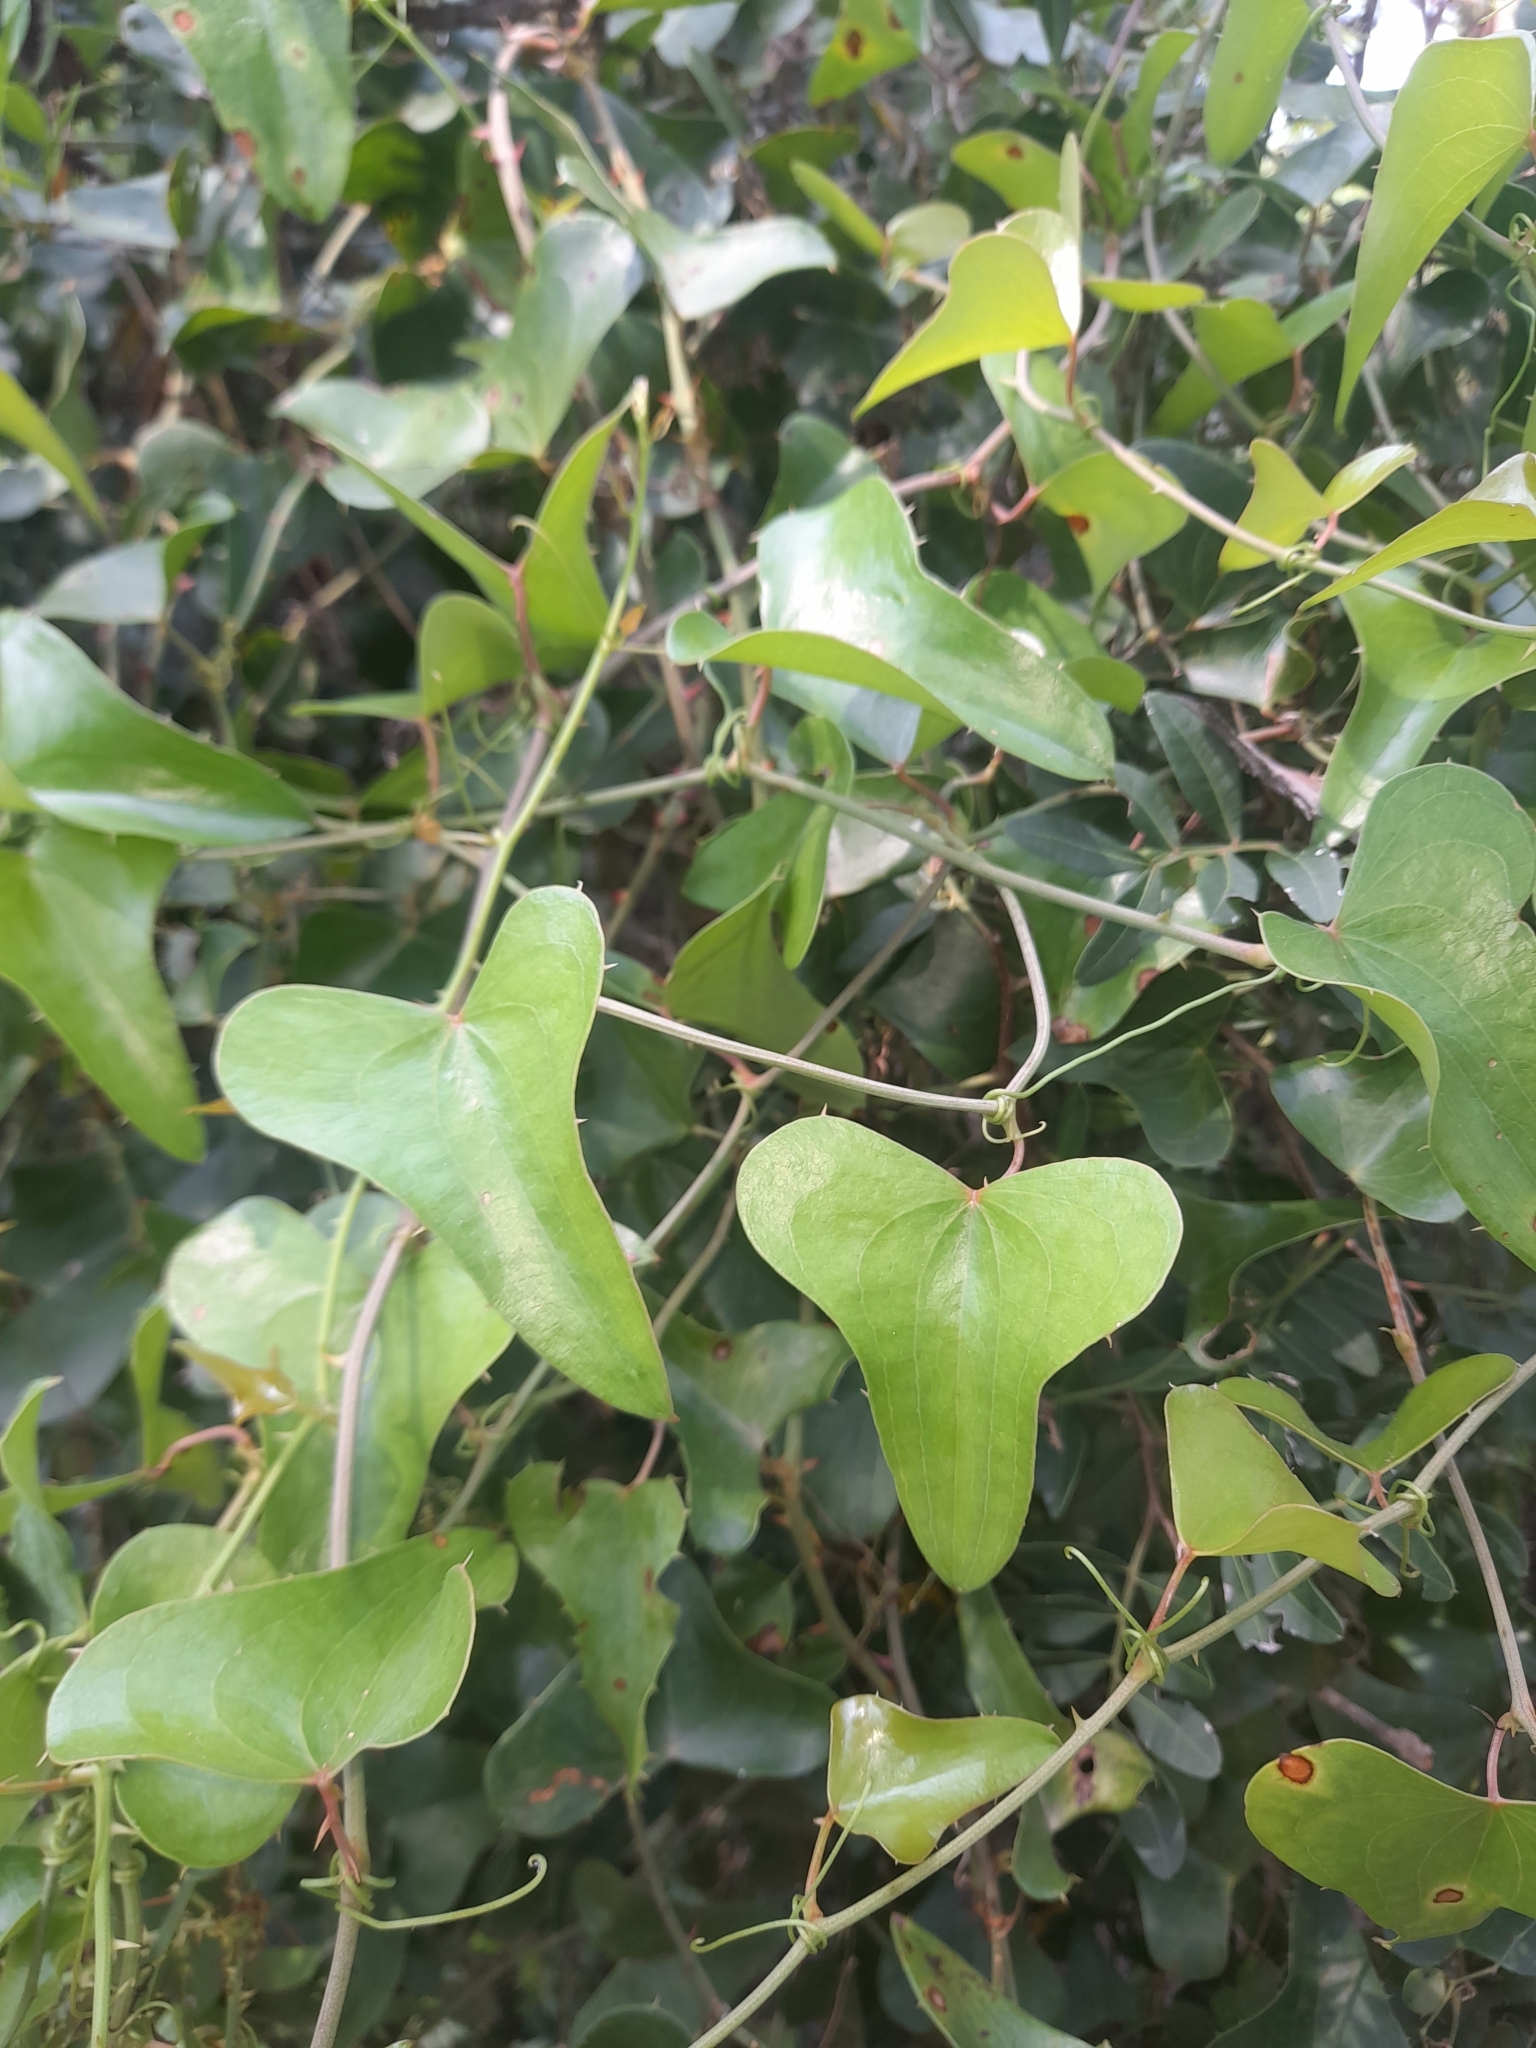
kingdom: Plantae
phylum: Tracheophyta
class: Liliopsida
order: Liliales
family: Smilacaceae
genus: Smilax
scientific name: Smilax aspera
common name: Common smilax
